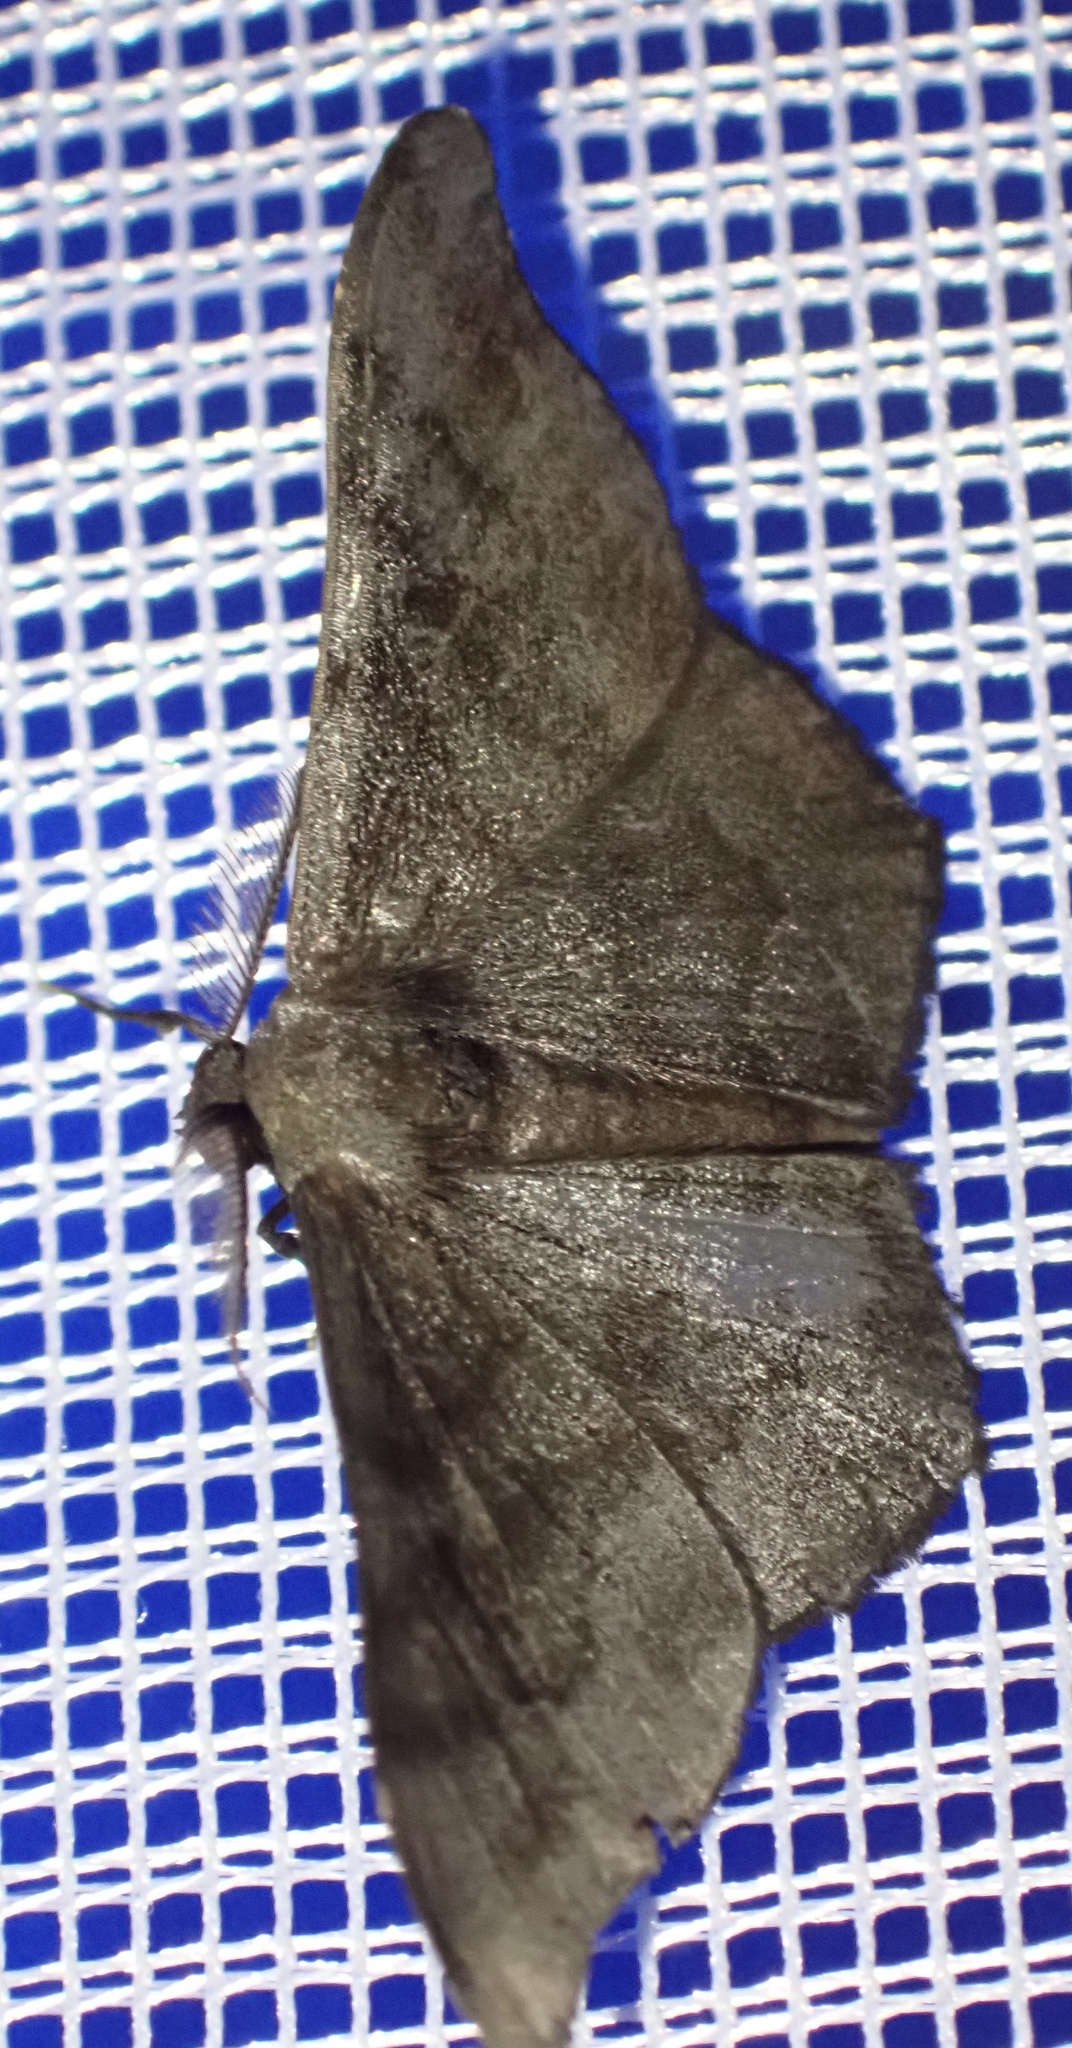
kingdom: Animalia
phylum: Arthropoda
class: Insecta
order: Lepidoptera
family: Geometridae
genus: Hyposidra
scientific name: Hyposidra talaca
